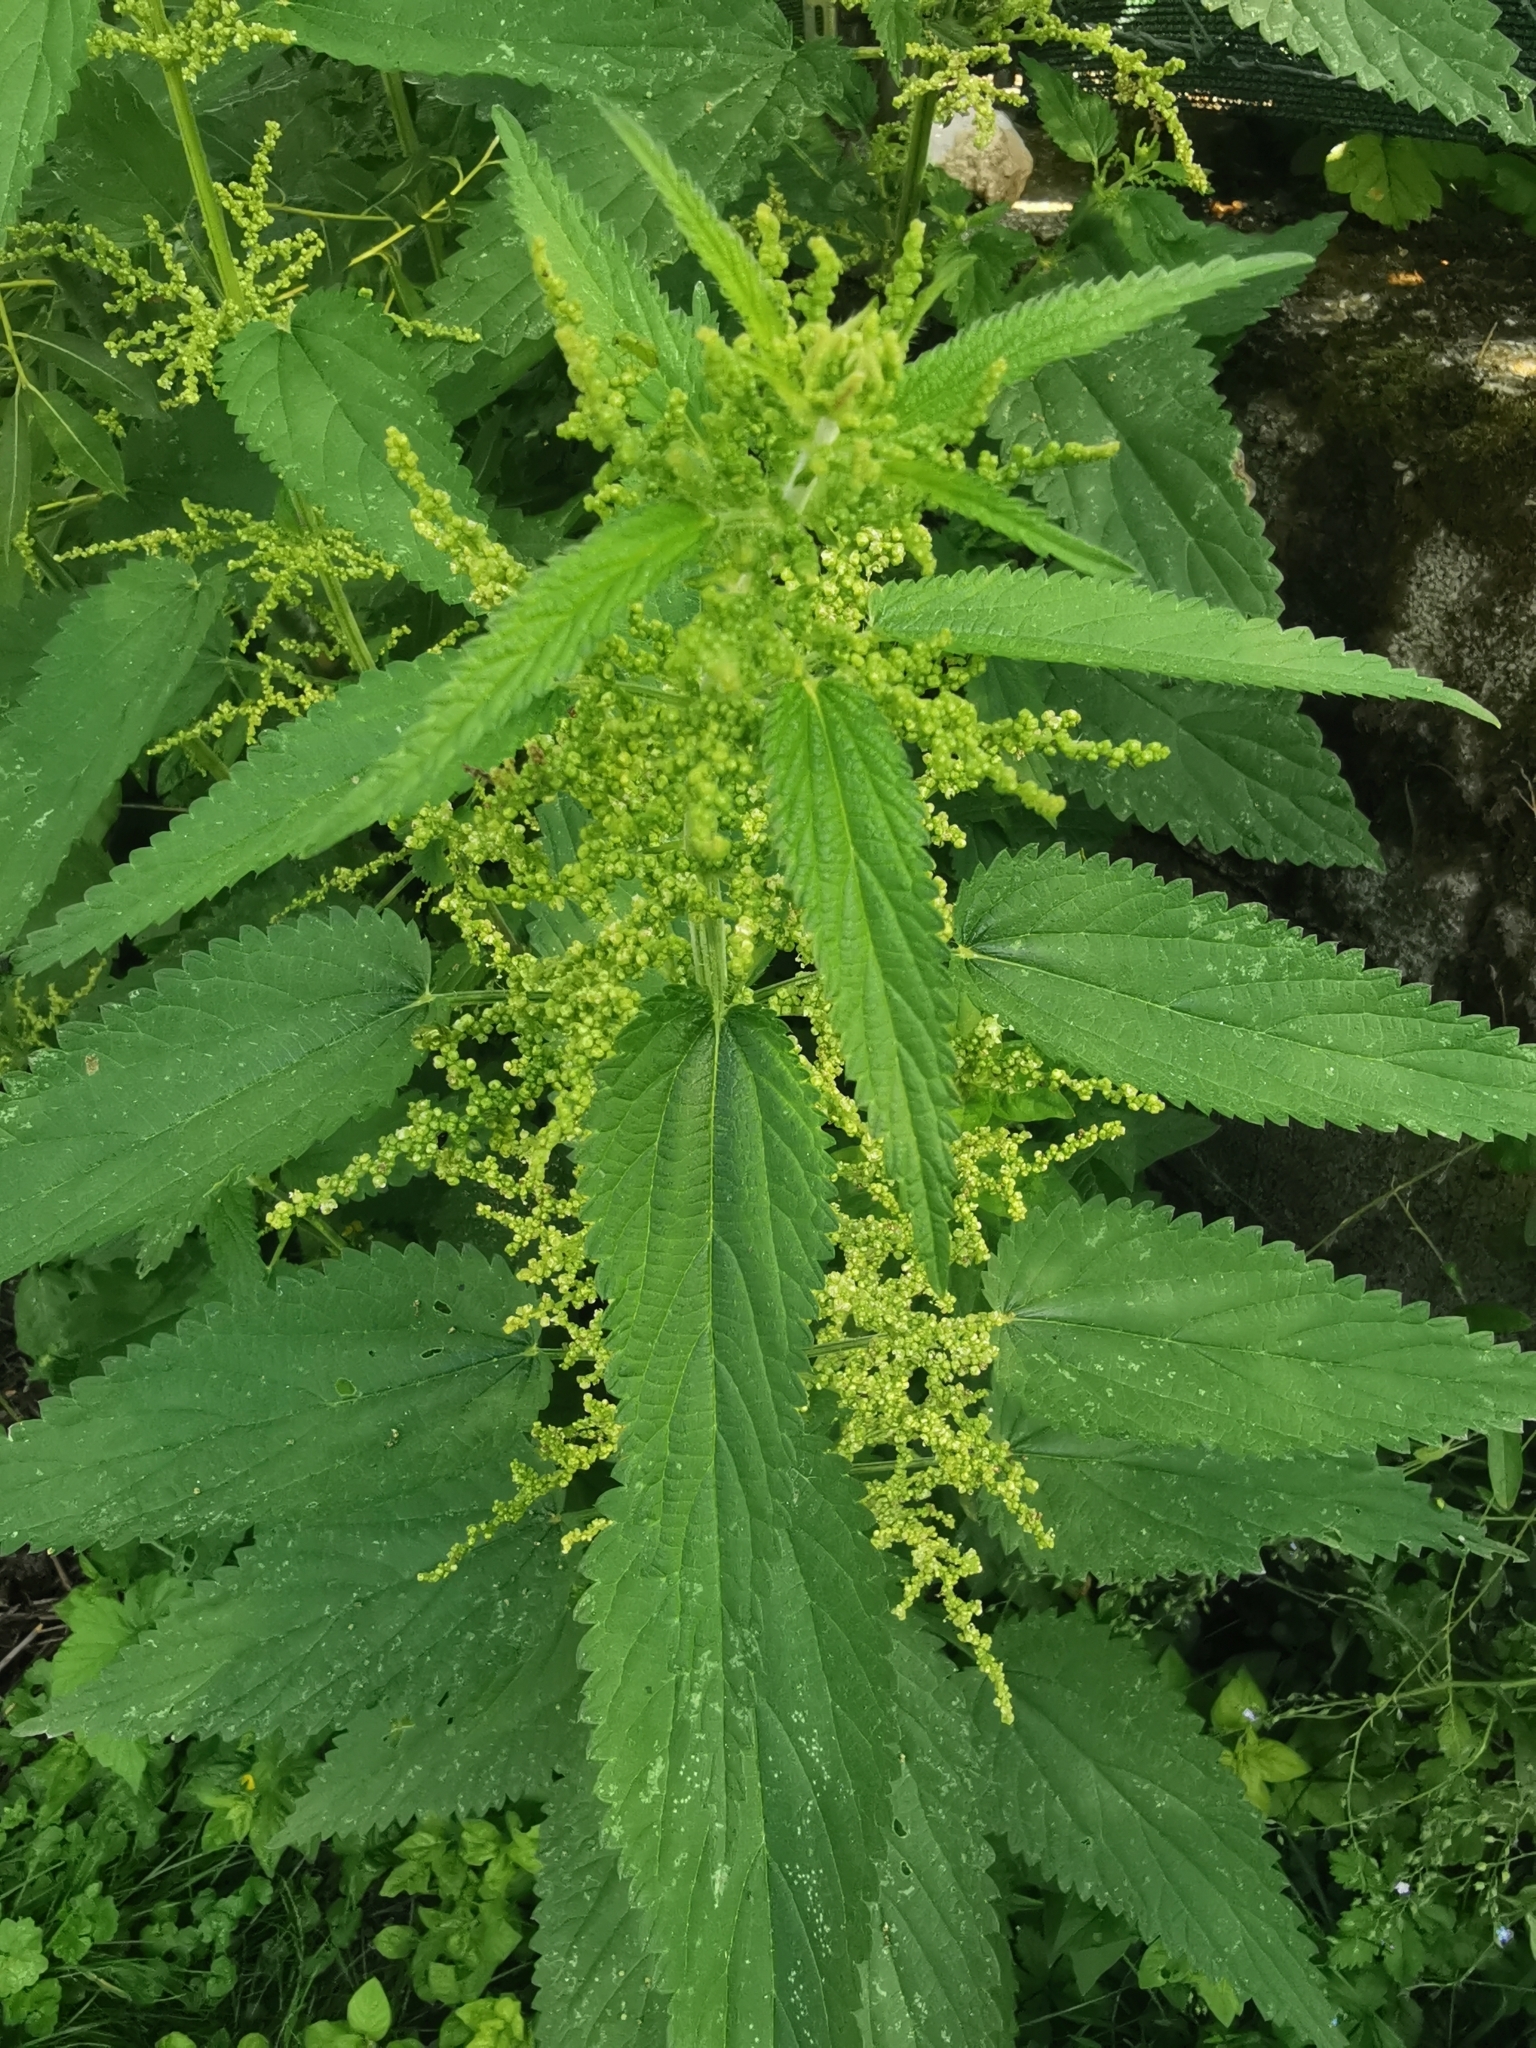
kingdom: Plantae
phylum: Tracheophyta
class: Magnoliopsida
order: Rosales
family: Urticaceae
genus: Urtica
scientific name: Urtica dioica
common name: Common nettle
